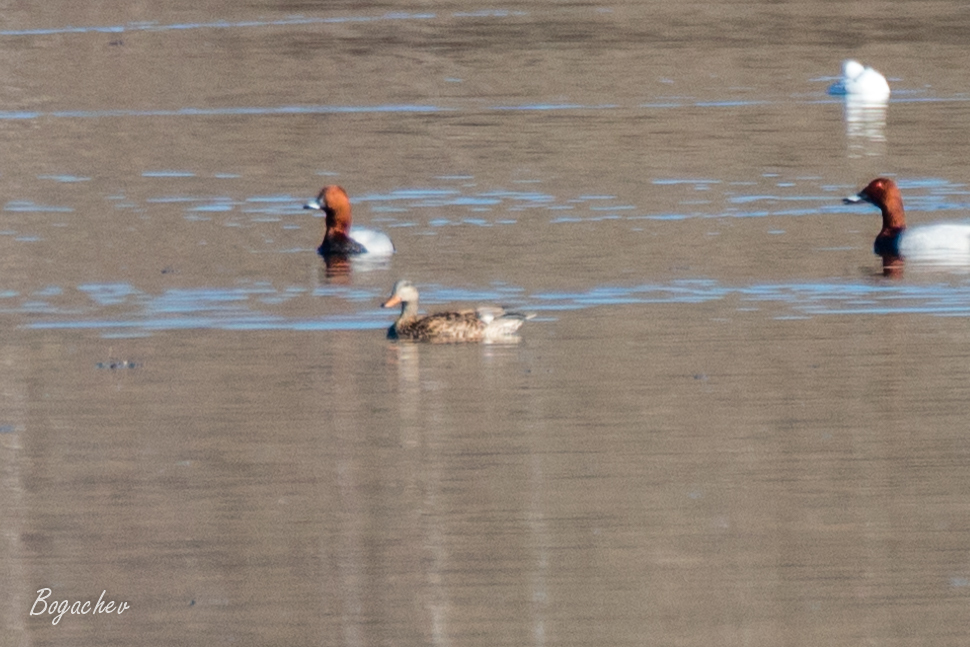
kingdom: Animalia
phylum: Chordata
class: Aves
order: Anseriformes
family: Anatidae
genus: Mareca
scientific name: Mareca strepera
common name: Gadwall
